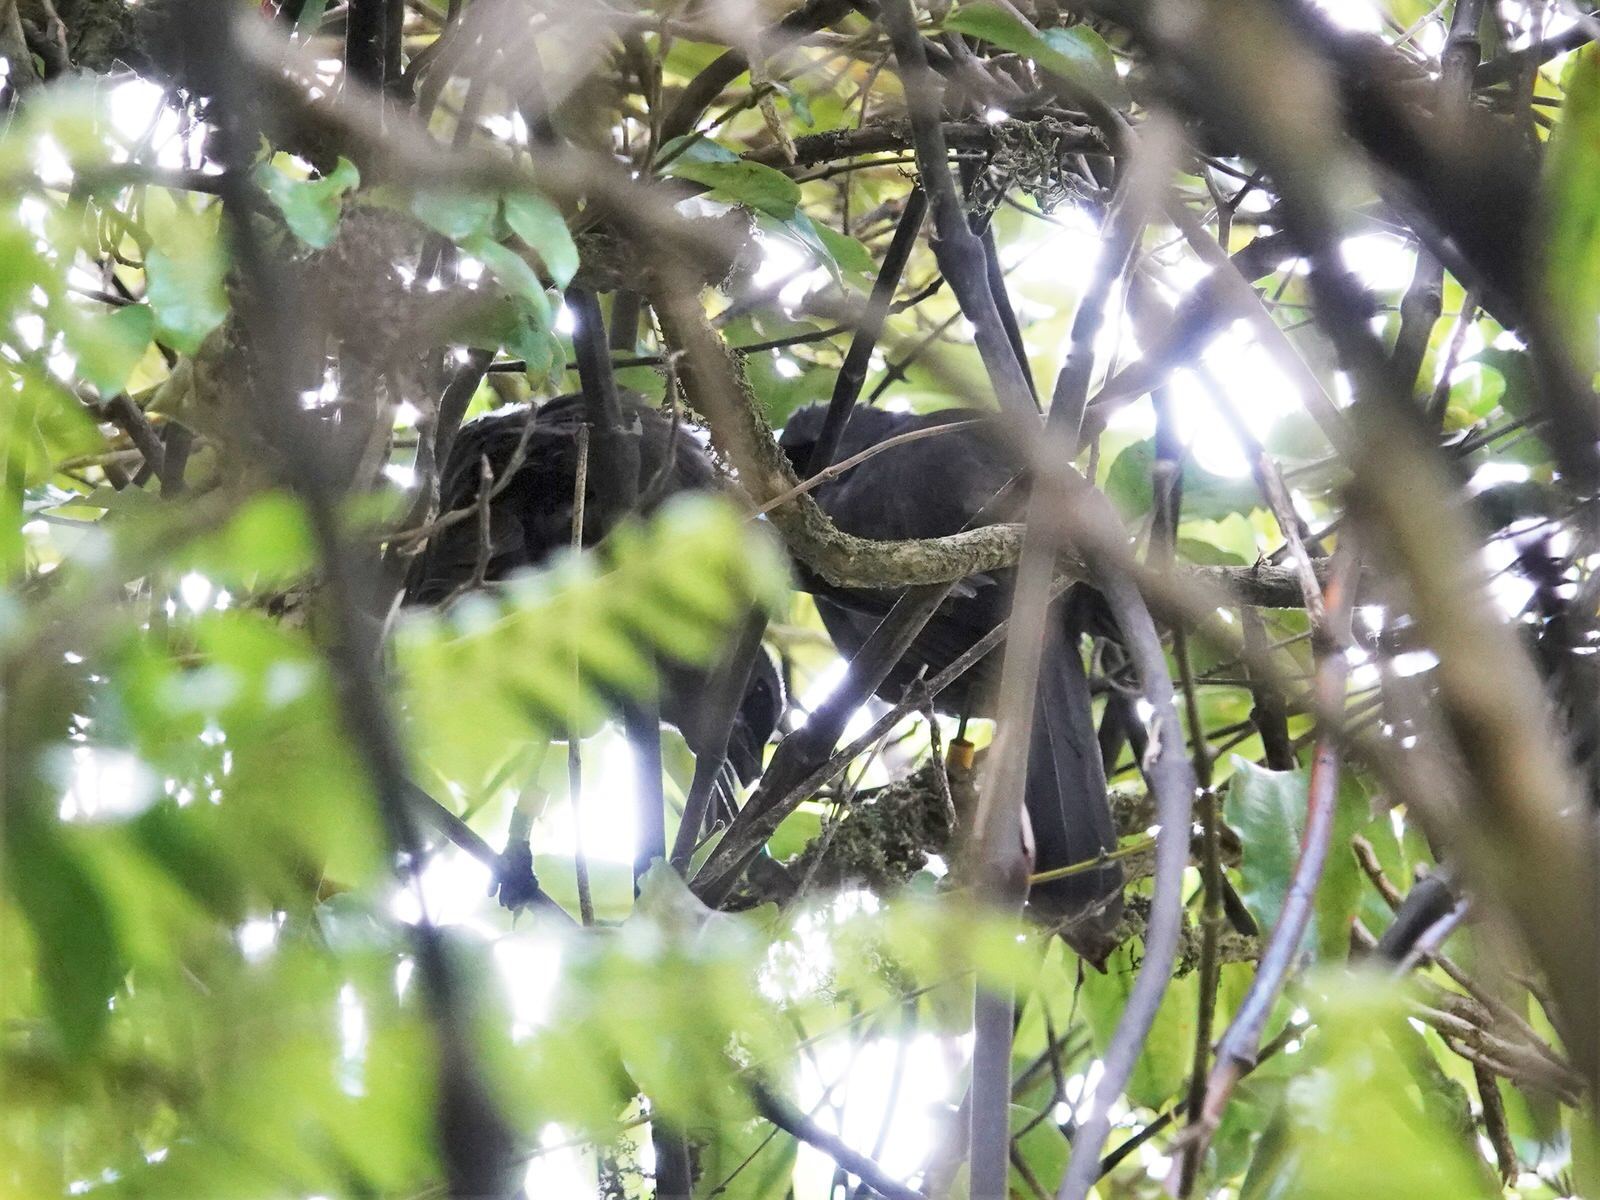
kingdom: Animalia
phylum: Chordata
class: Aves
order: Passeriformes
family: Callaeatidae
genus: Callaeas
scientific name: Callaeas cinereus
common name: South island kokako
